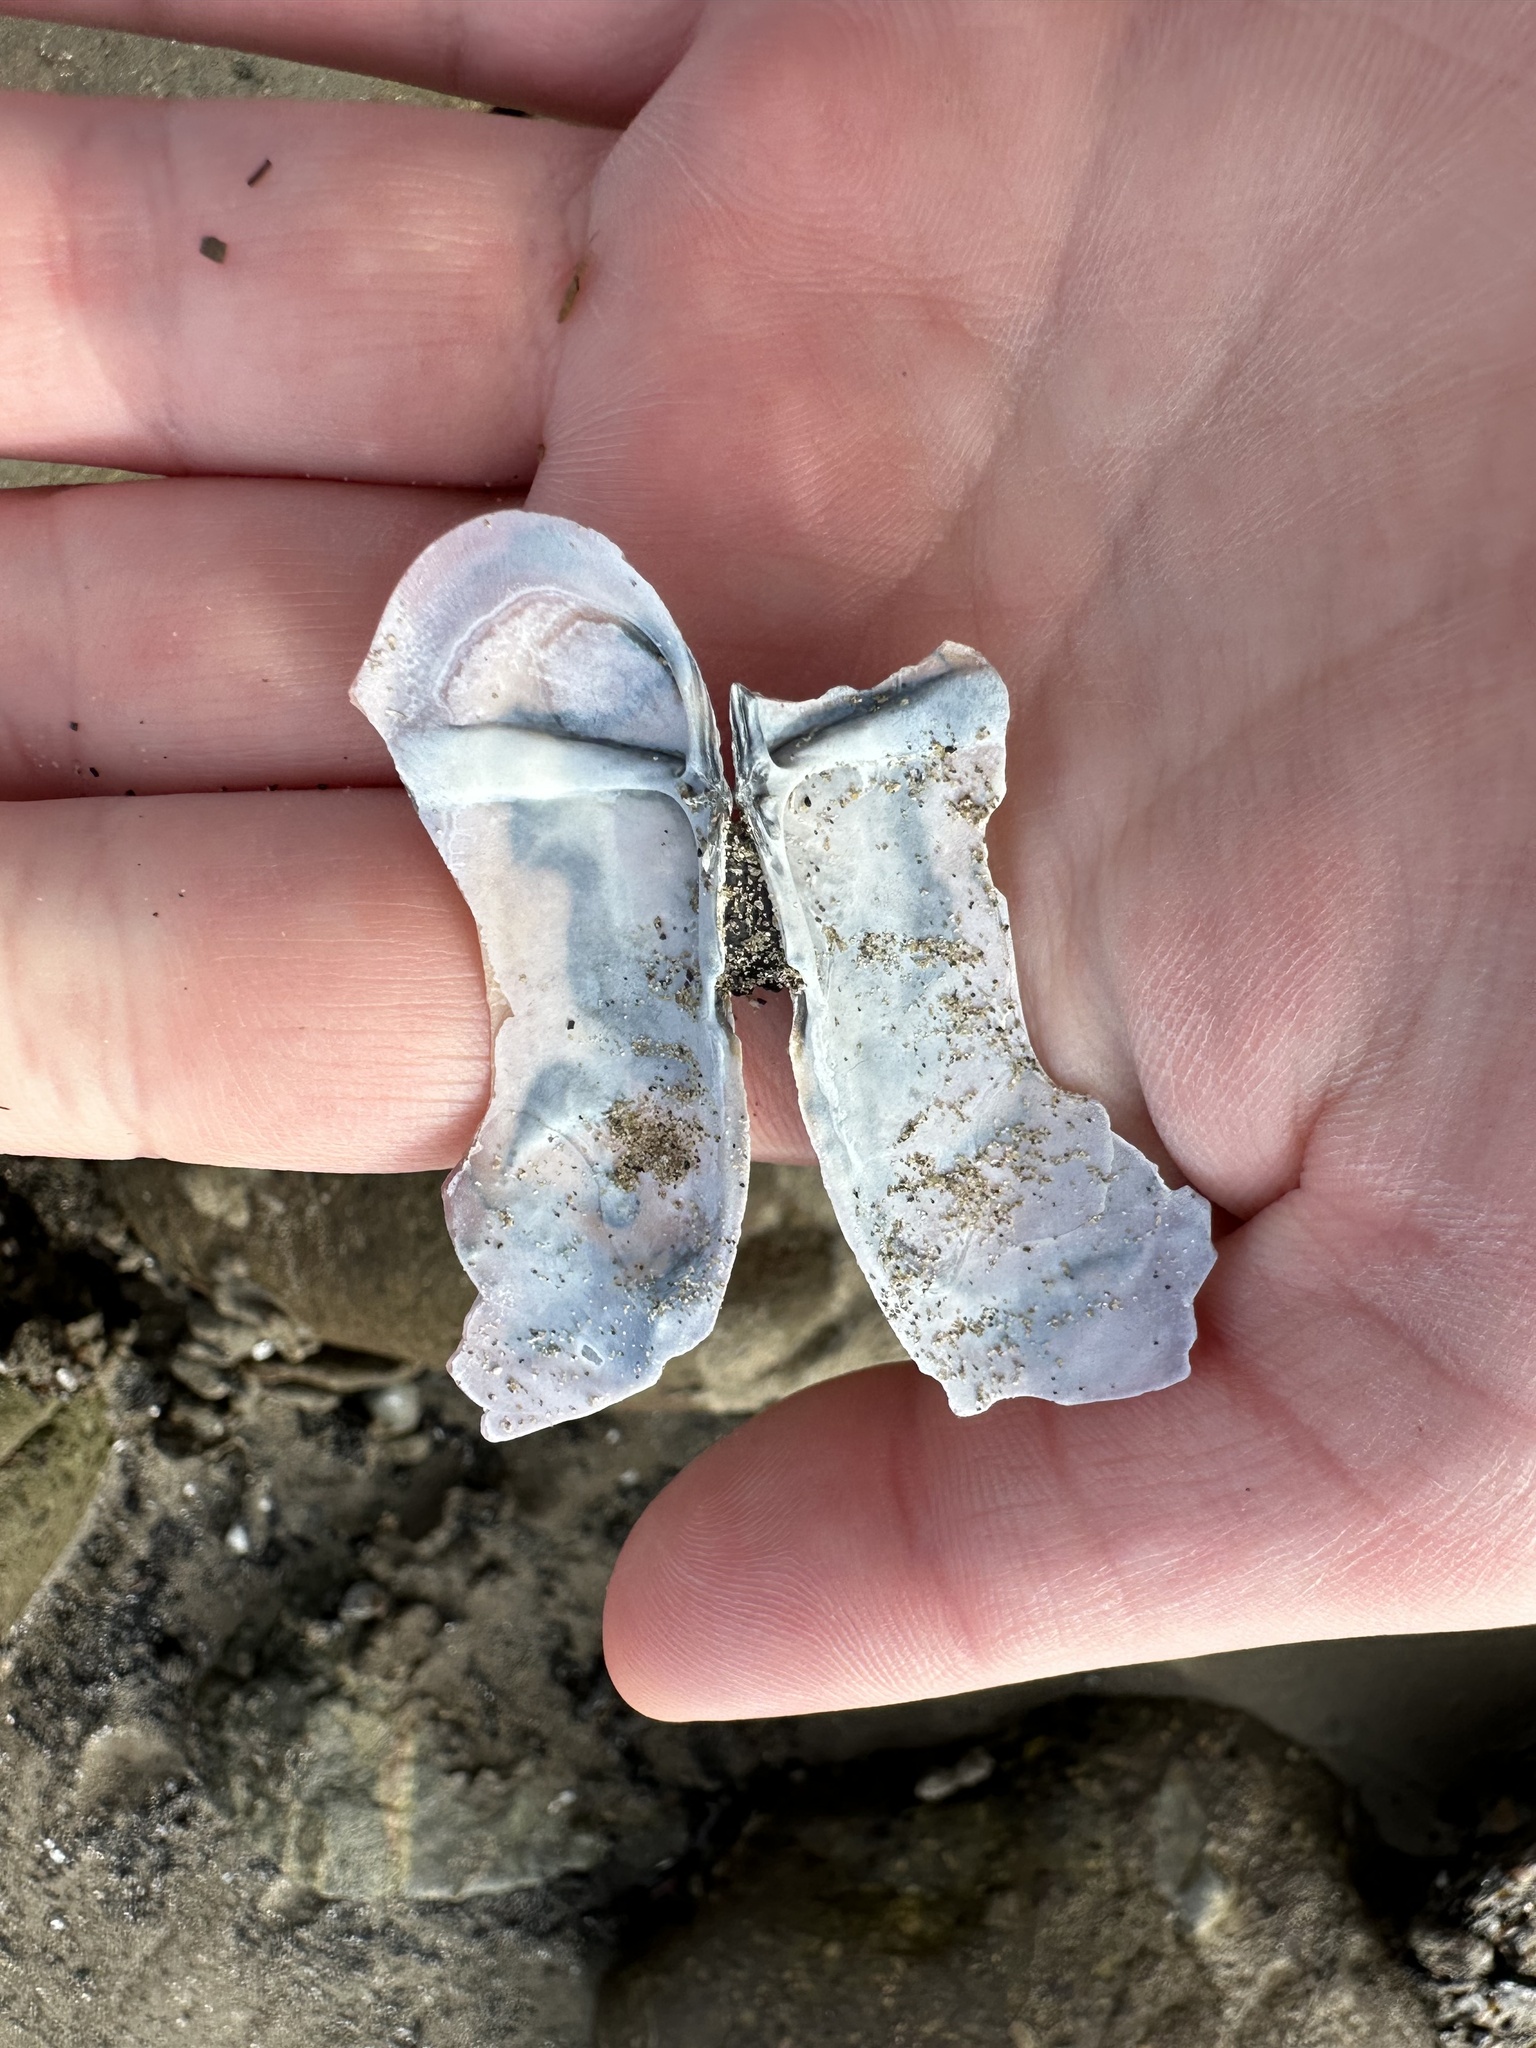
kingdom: Animalia
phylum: Mollusca
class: Bivalvia
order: Adapedonta
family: Pharidae
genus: Siliqua
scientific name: Siliqua costata
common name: Atlantic razor
